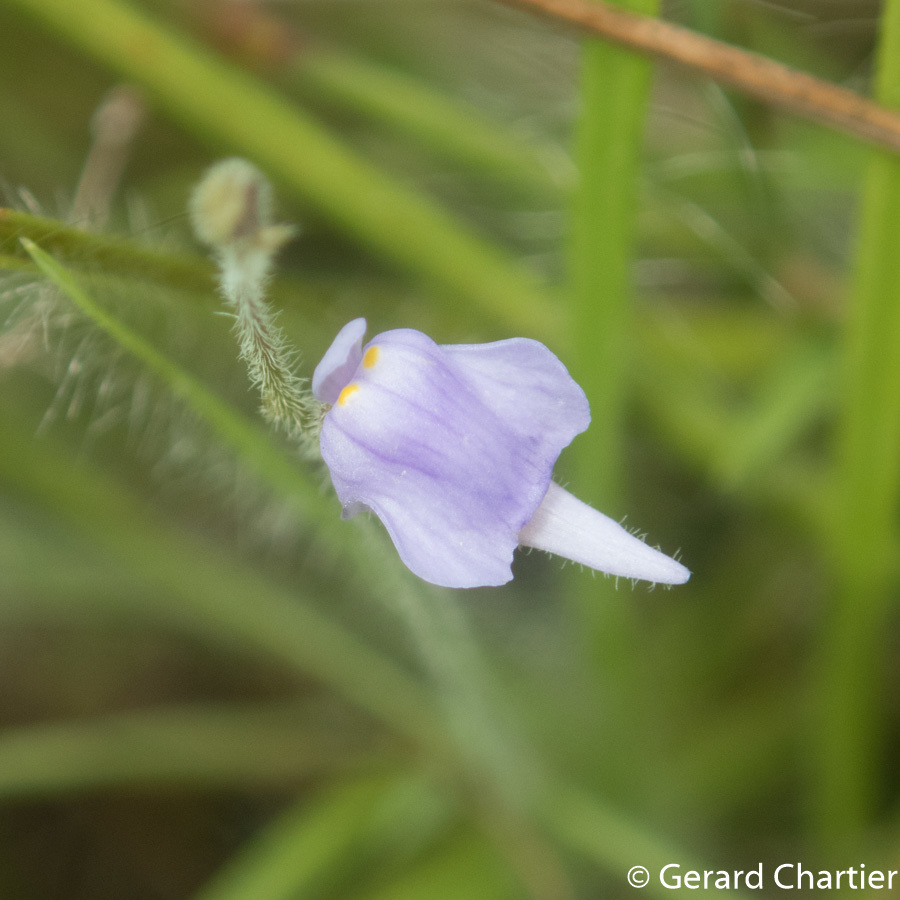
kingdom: Plantae
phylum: Tracheophyta
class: Magnoliopsida
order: Lamiales
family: Lentibulariaceae
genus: Utricularia
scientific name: Utricularia hirta
